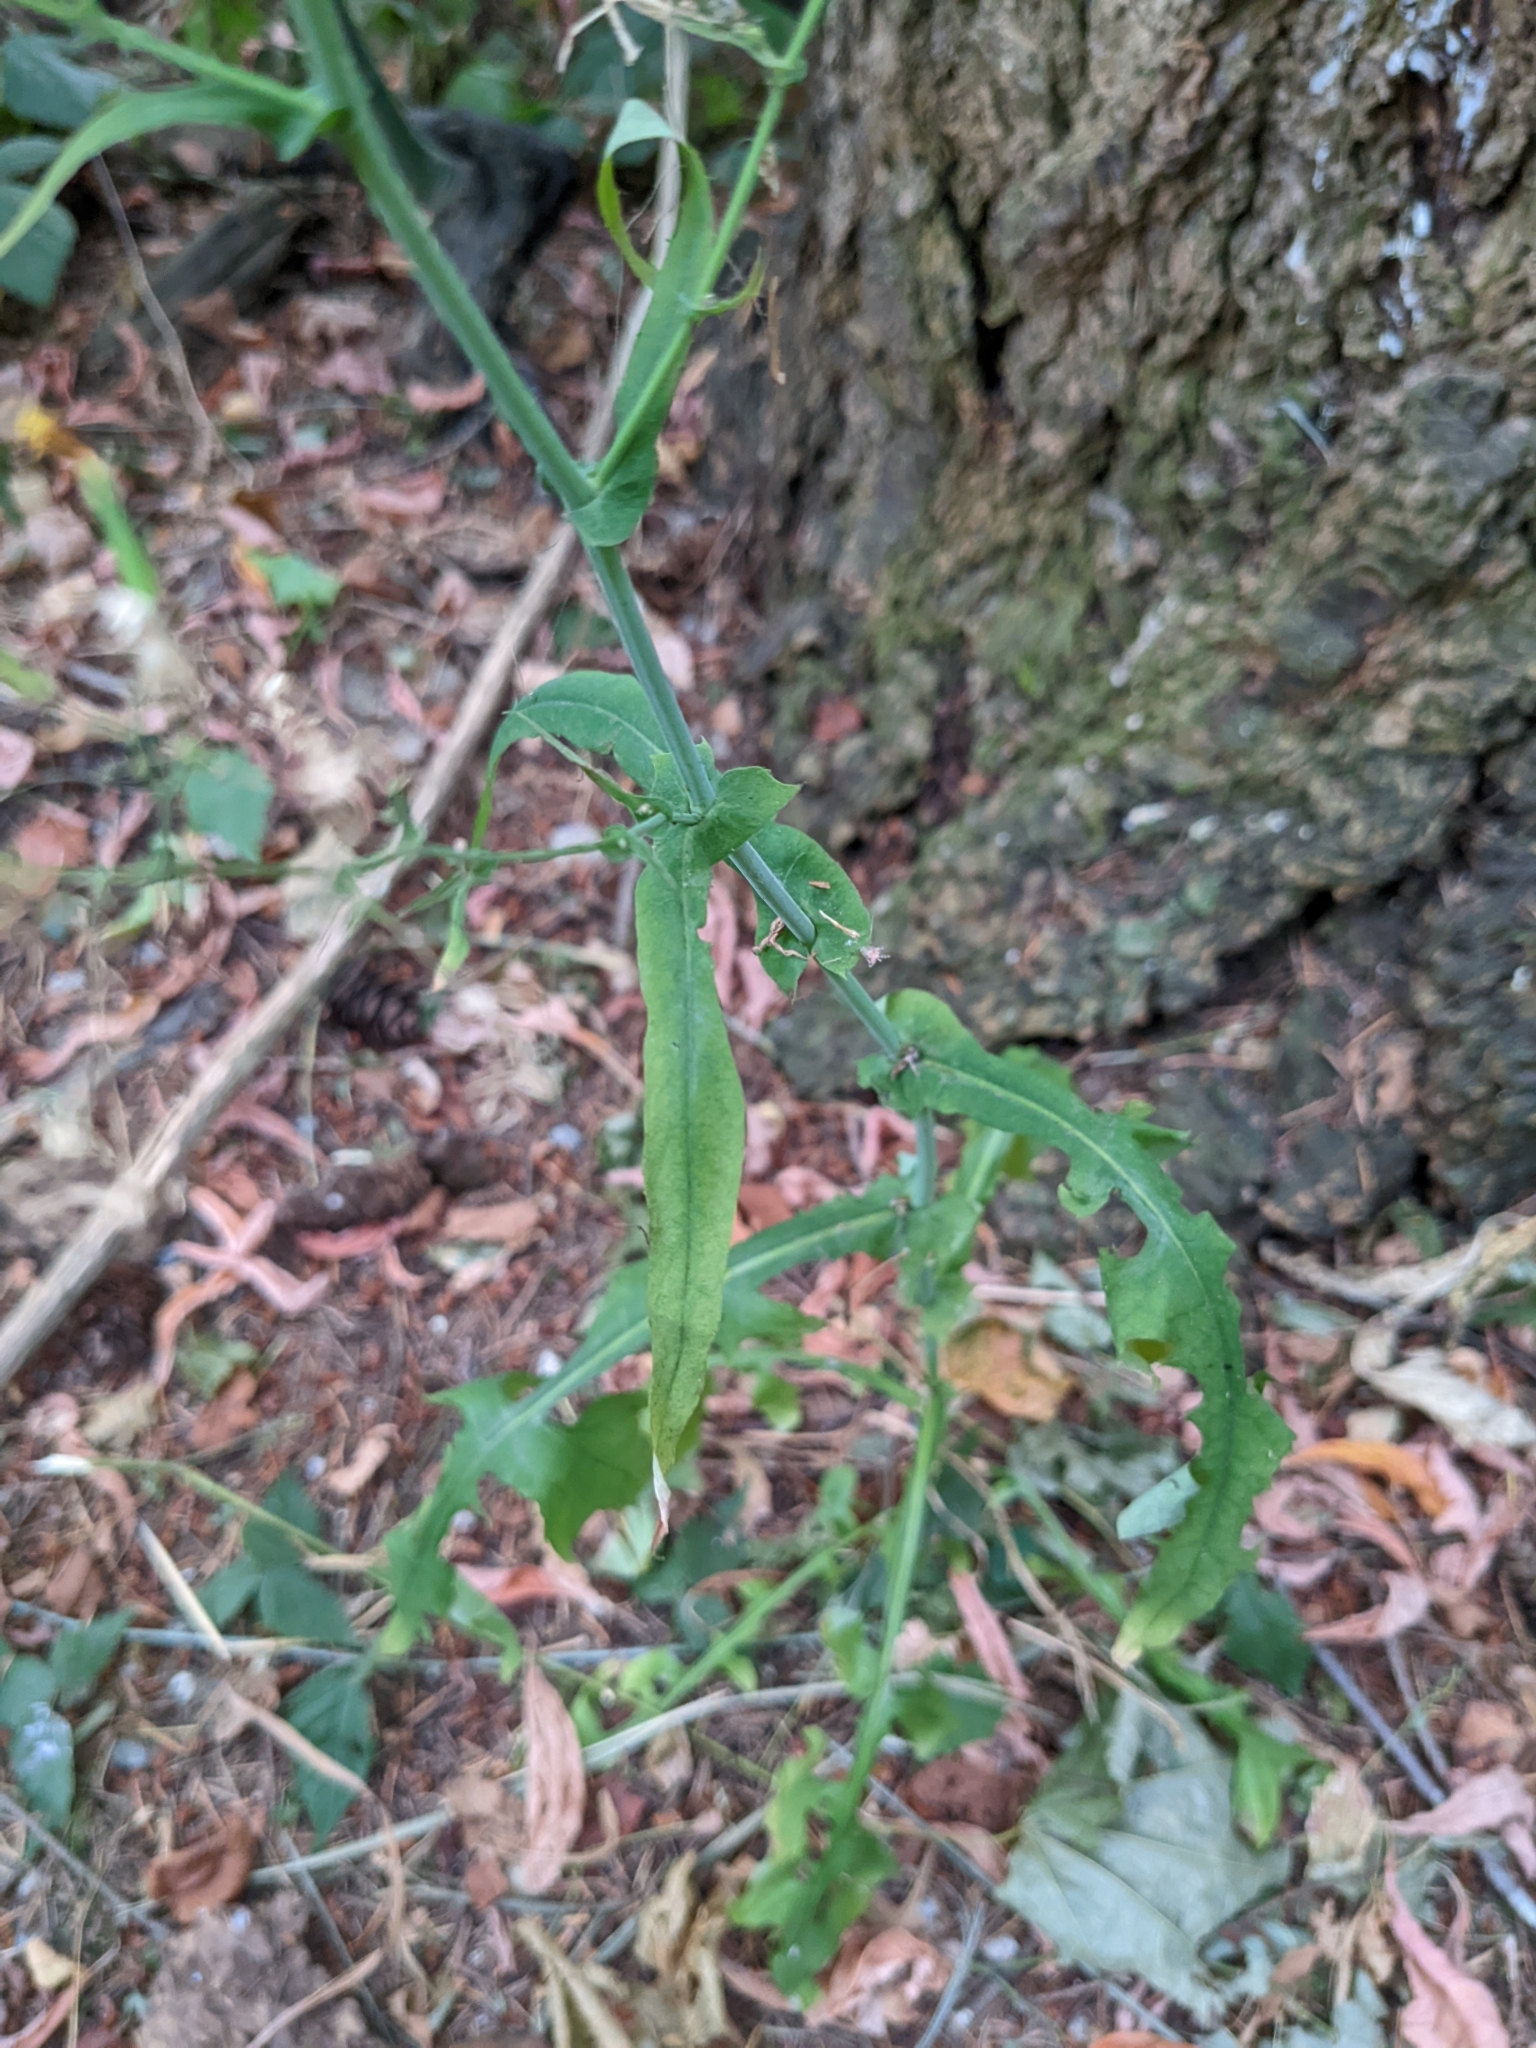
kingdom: Plantae
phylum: Tracheophyta
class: Magnoliopsida
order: Asterales
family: Asteraceae
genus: Mycelis
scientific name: Mycelis muralis
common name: Wall lettuce
